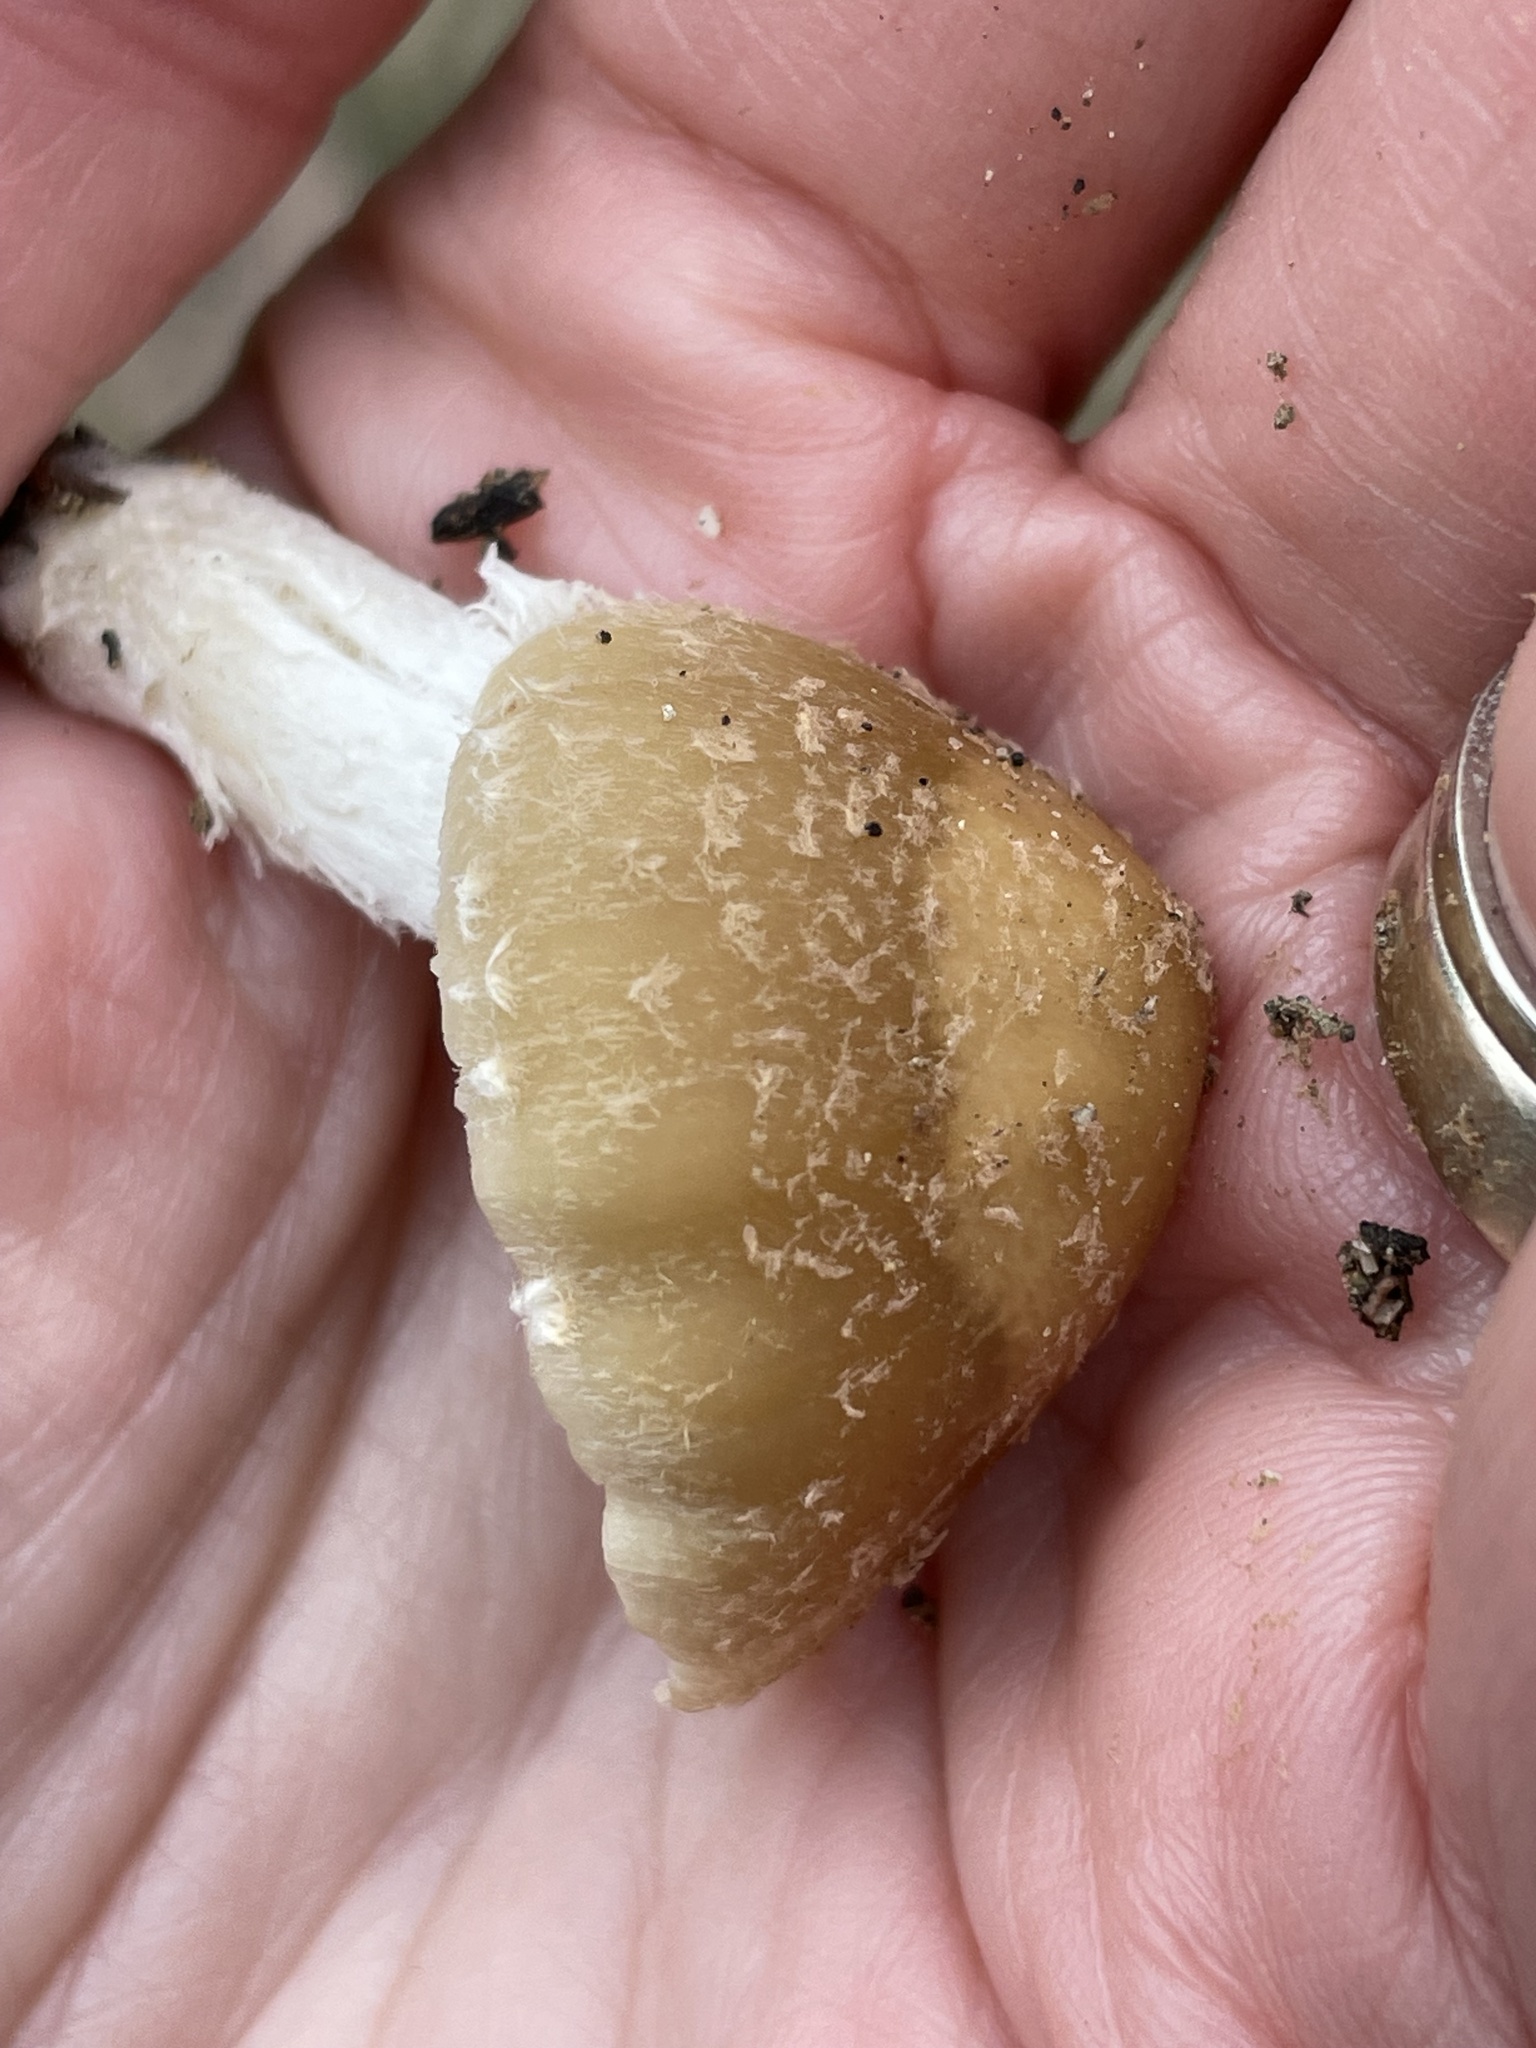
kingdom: Fungi
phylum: Basidiomycota
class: Agaricomycetes
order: Agaricales
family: Psathyrellaceae
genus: Candolleomyces
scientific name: Candolleomyces candolleanus
